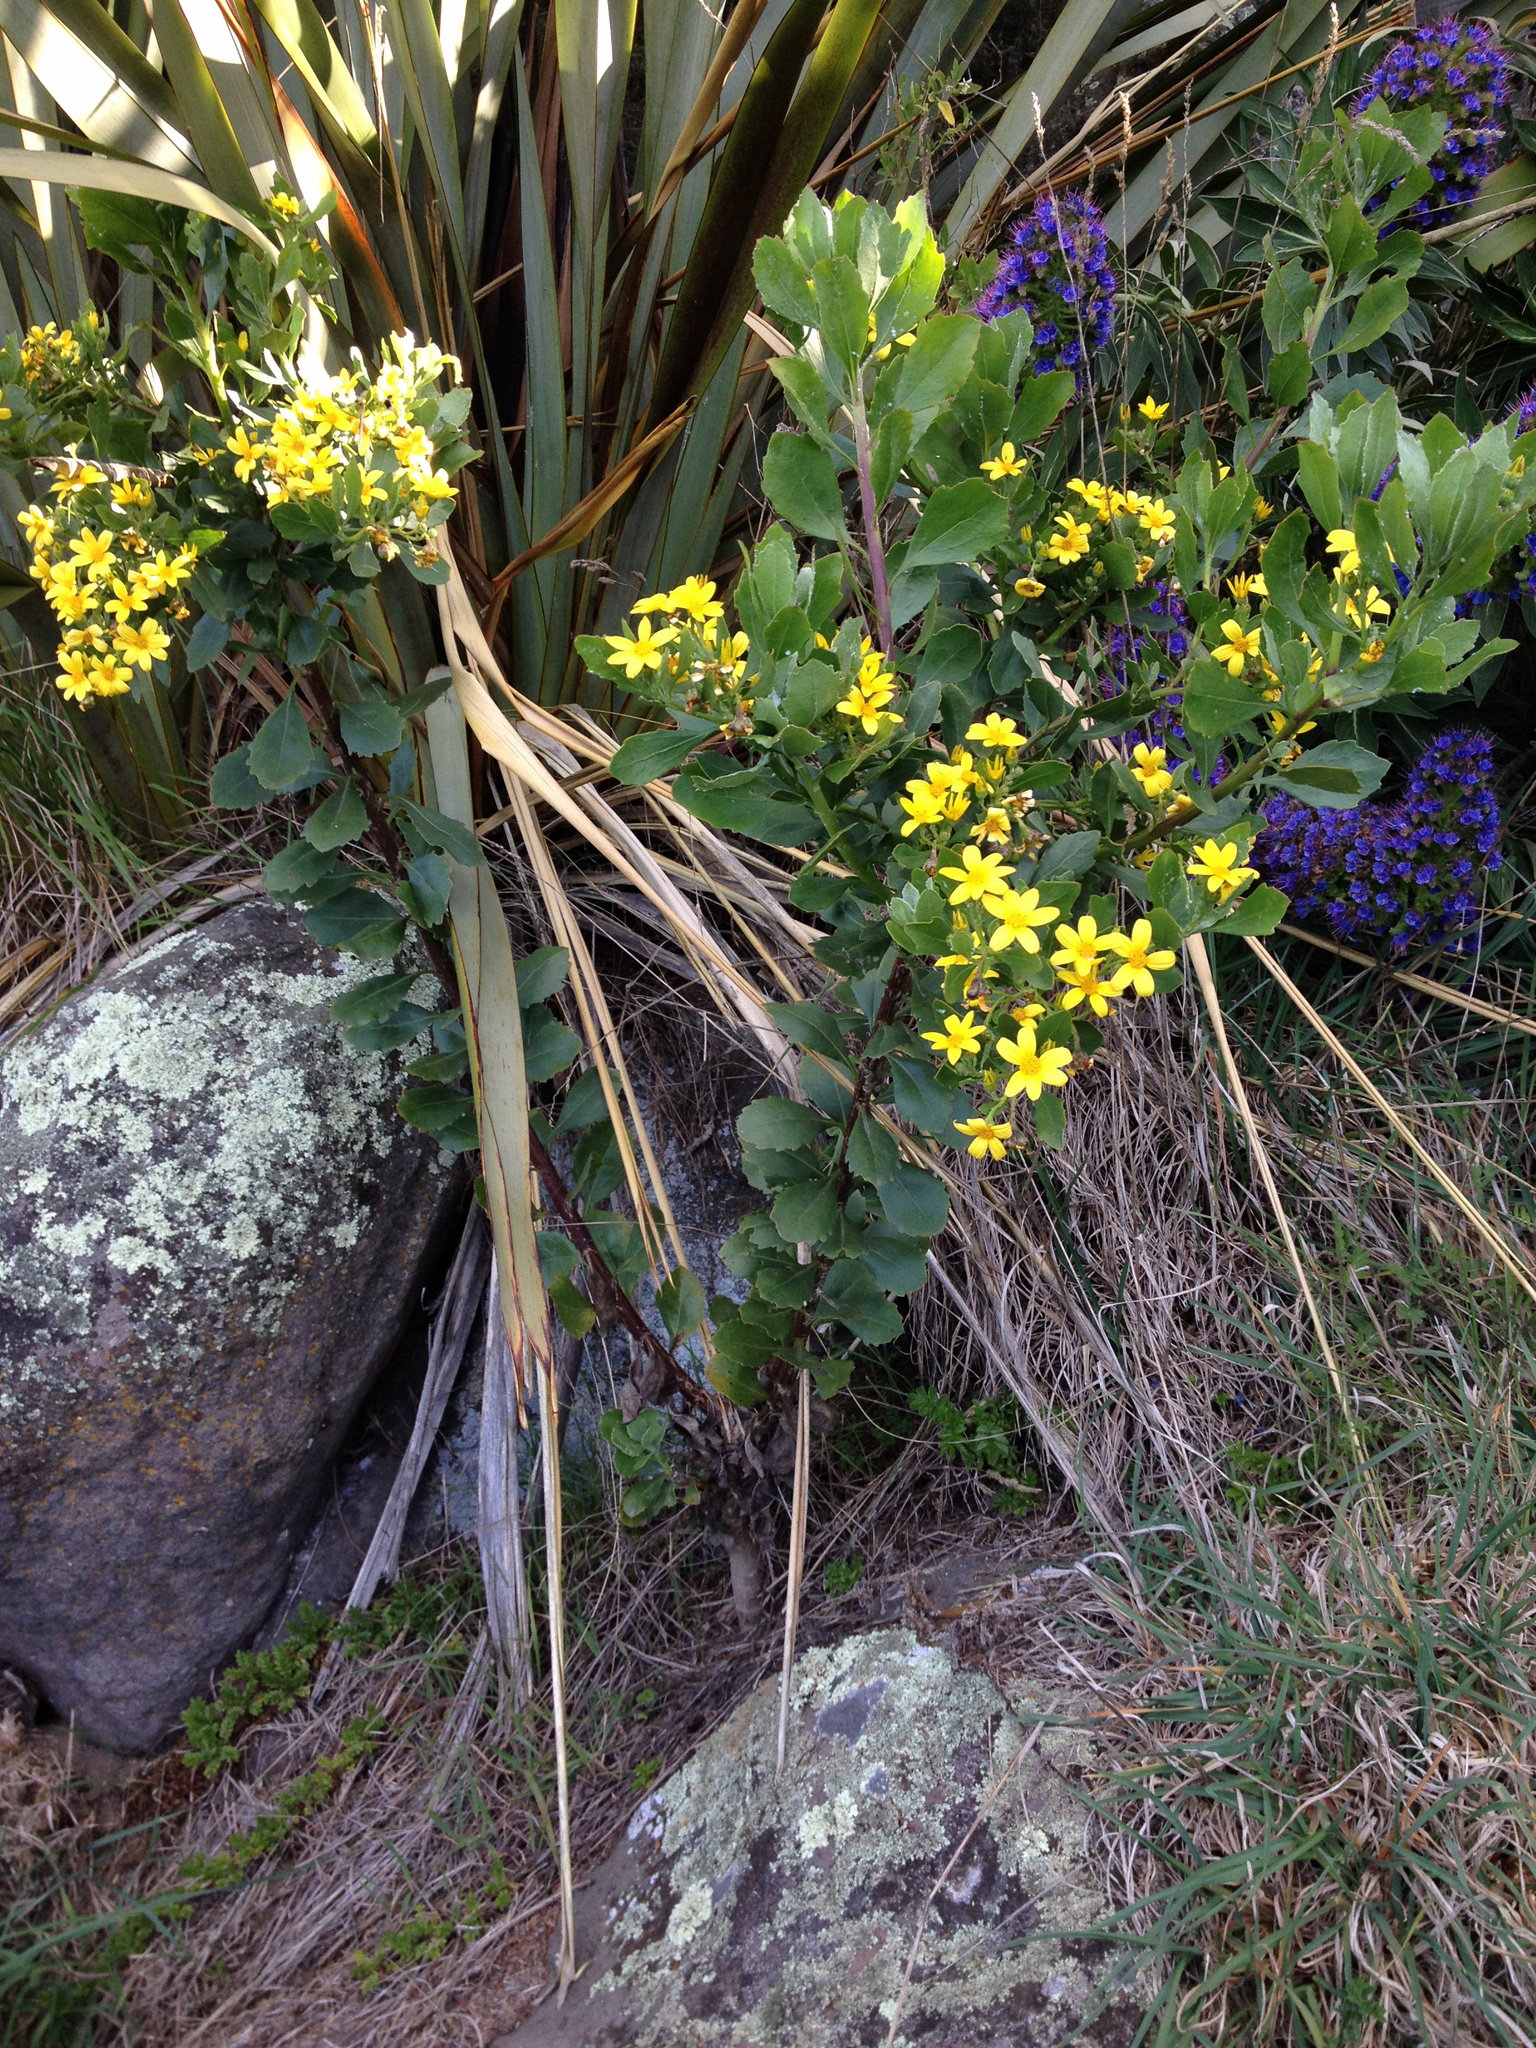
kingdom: Plantae
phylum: Tracheophyta
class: Magnoliopsida
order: Asterales
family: Asteraceae
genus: Osteospermum
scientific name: Osteospermum moniliferum
